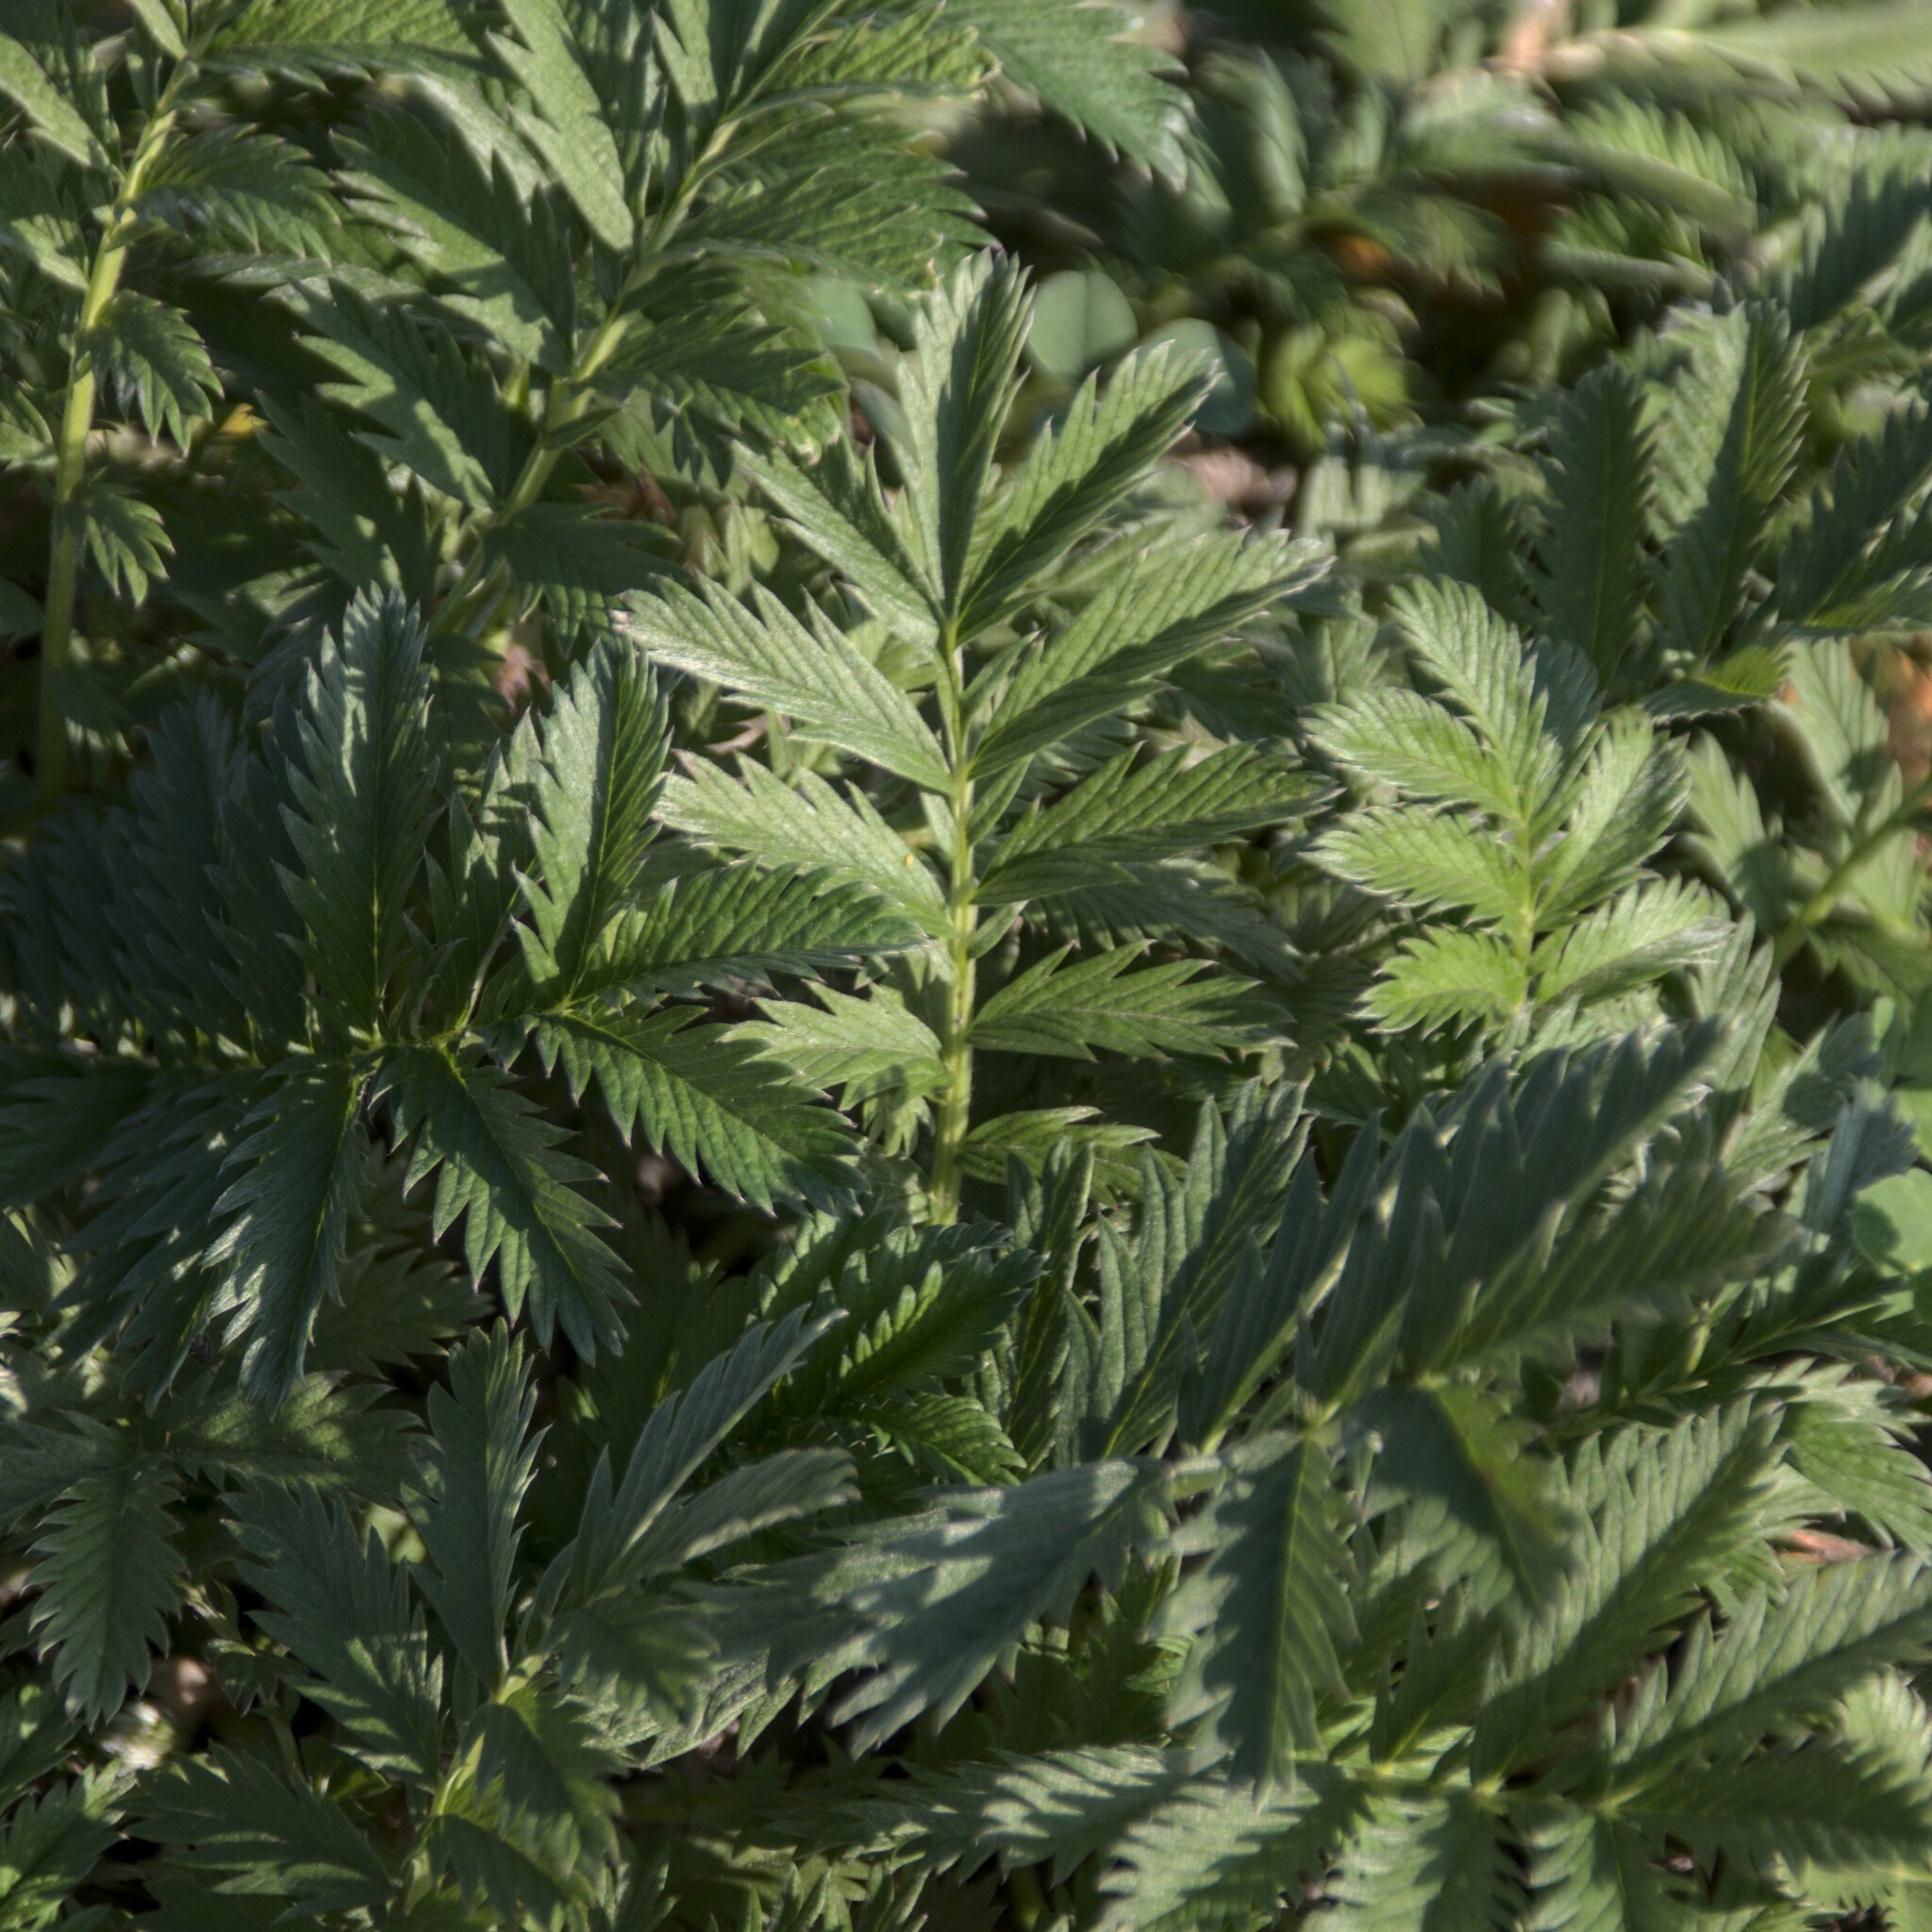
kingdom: Plantae
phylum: Tracheophyta
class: Magnoliopsida
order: Rosales
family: Rosaceae
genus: Argentina
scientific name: Argentina anserina
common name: Common silverweed
